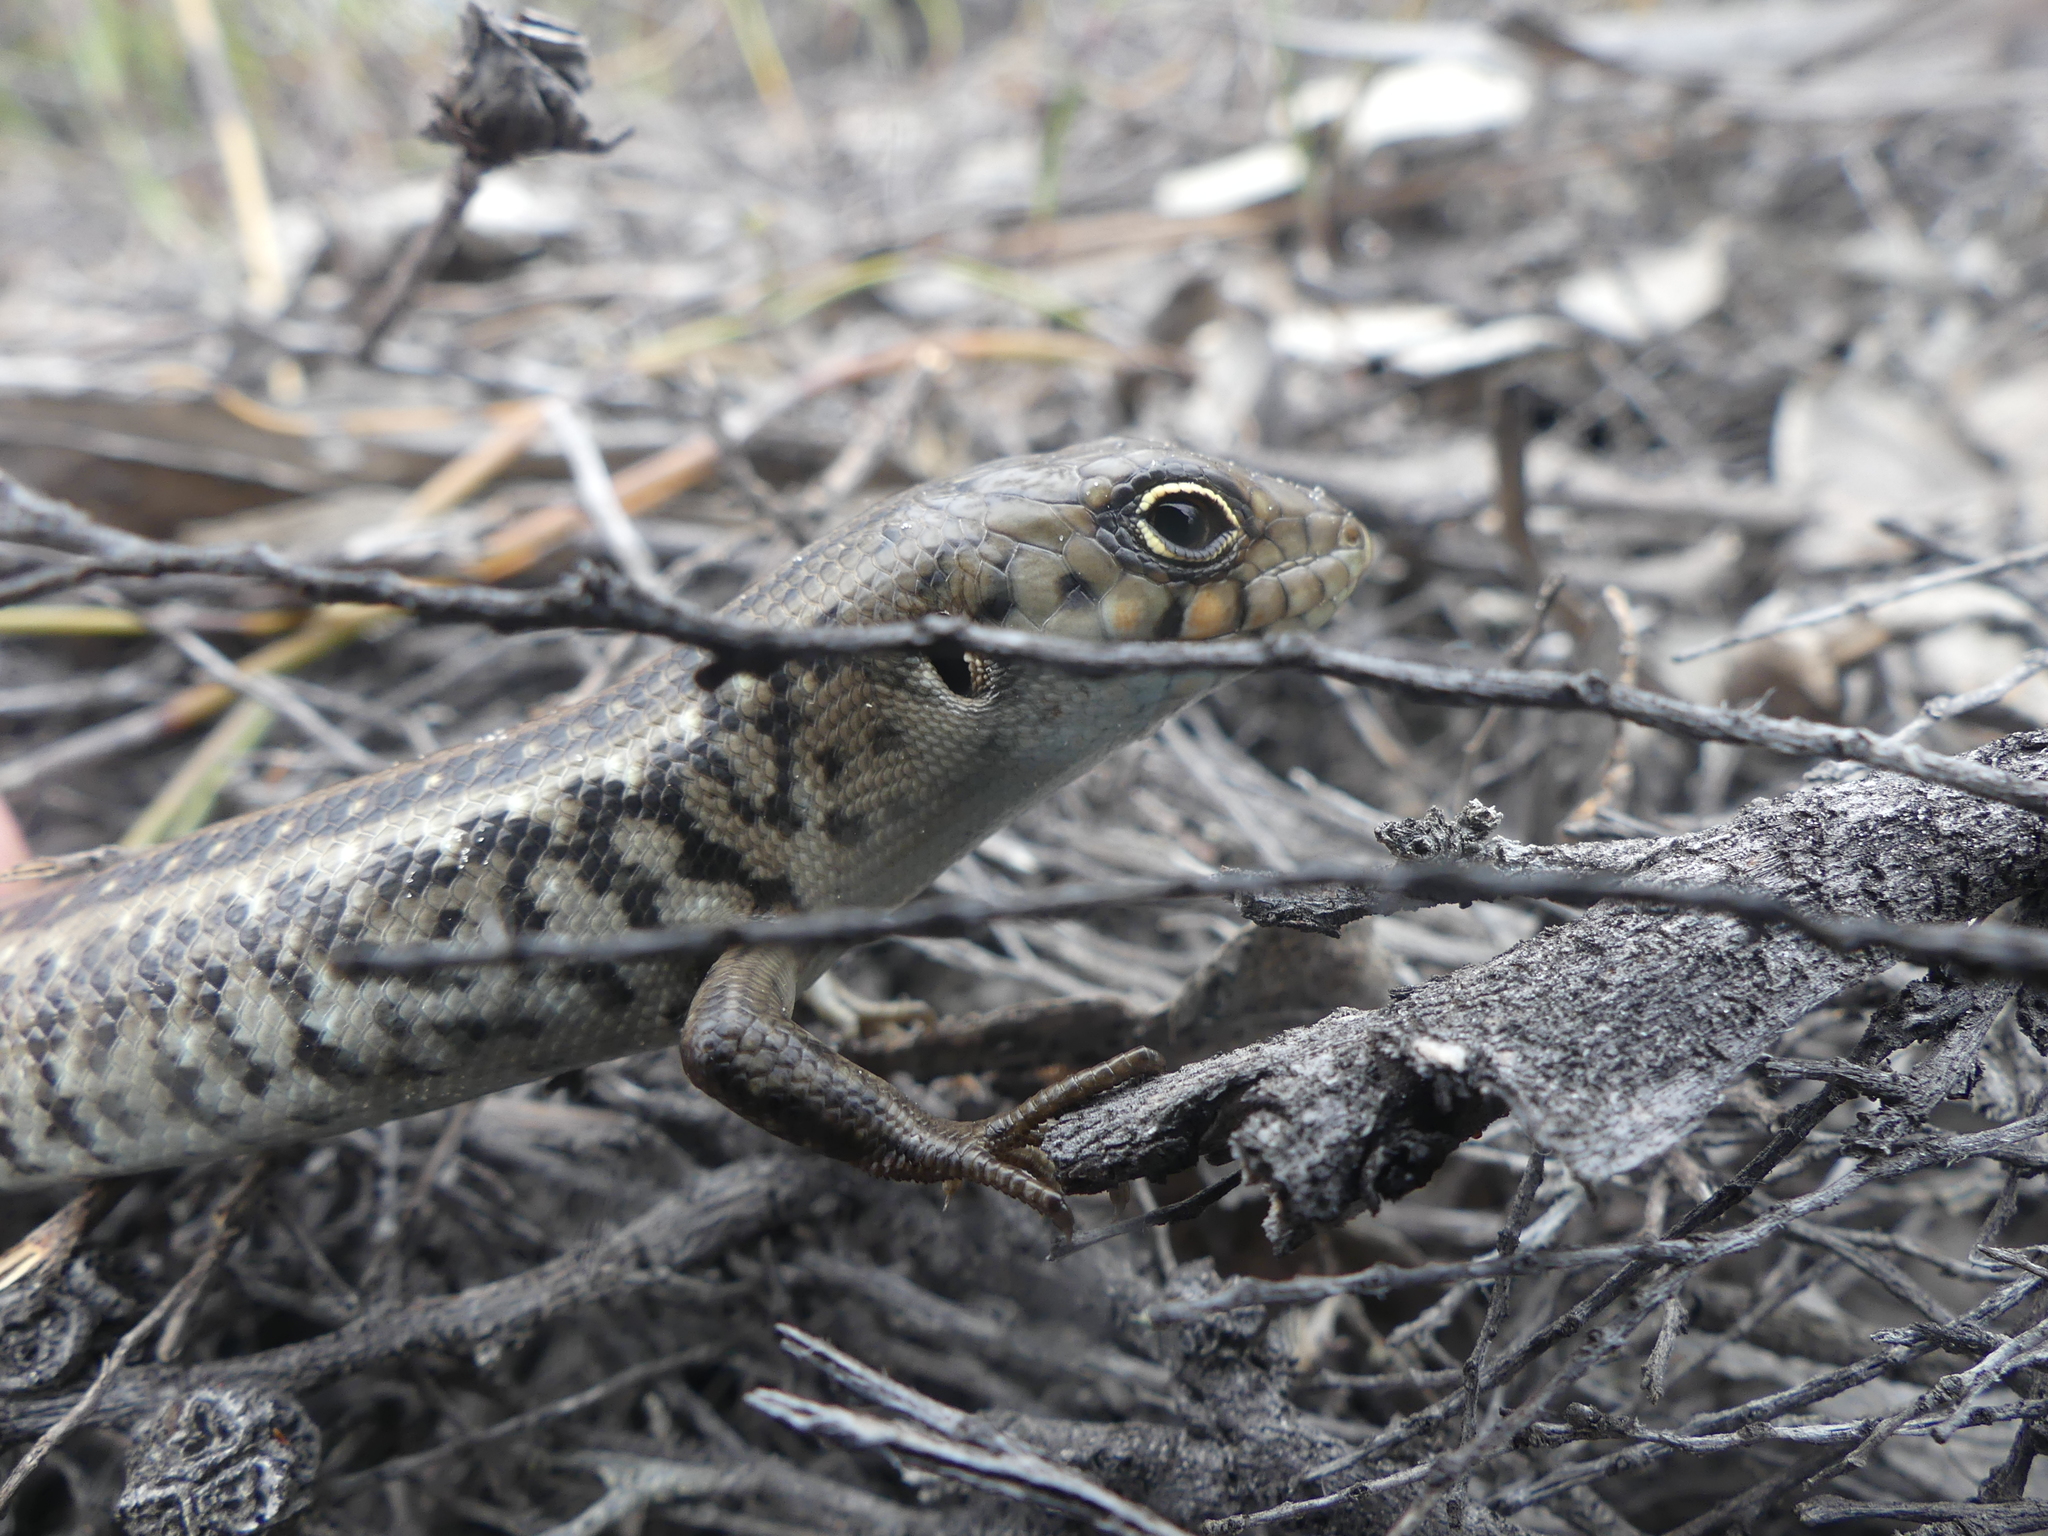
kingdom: Animalia
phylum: Chordata
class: Squamata
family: Scincidae
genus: Liopholis
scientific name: Liopholis pulchra
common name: South-western rock-skink
